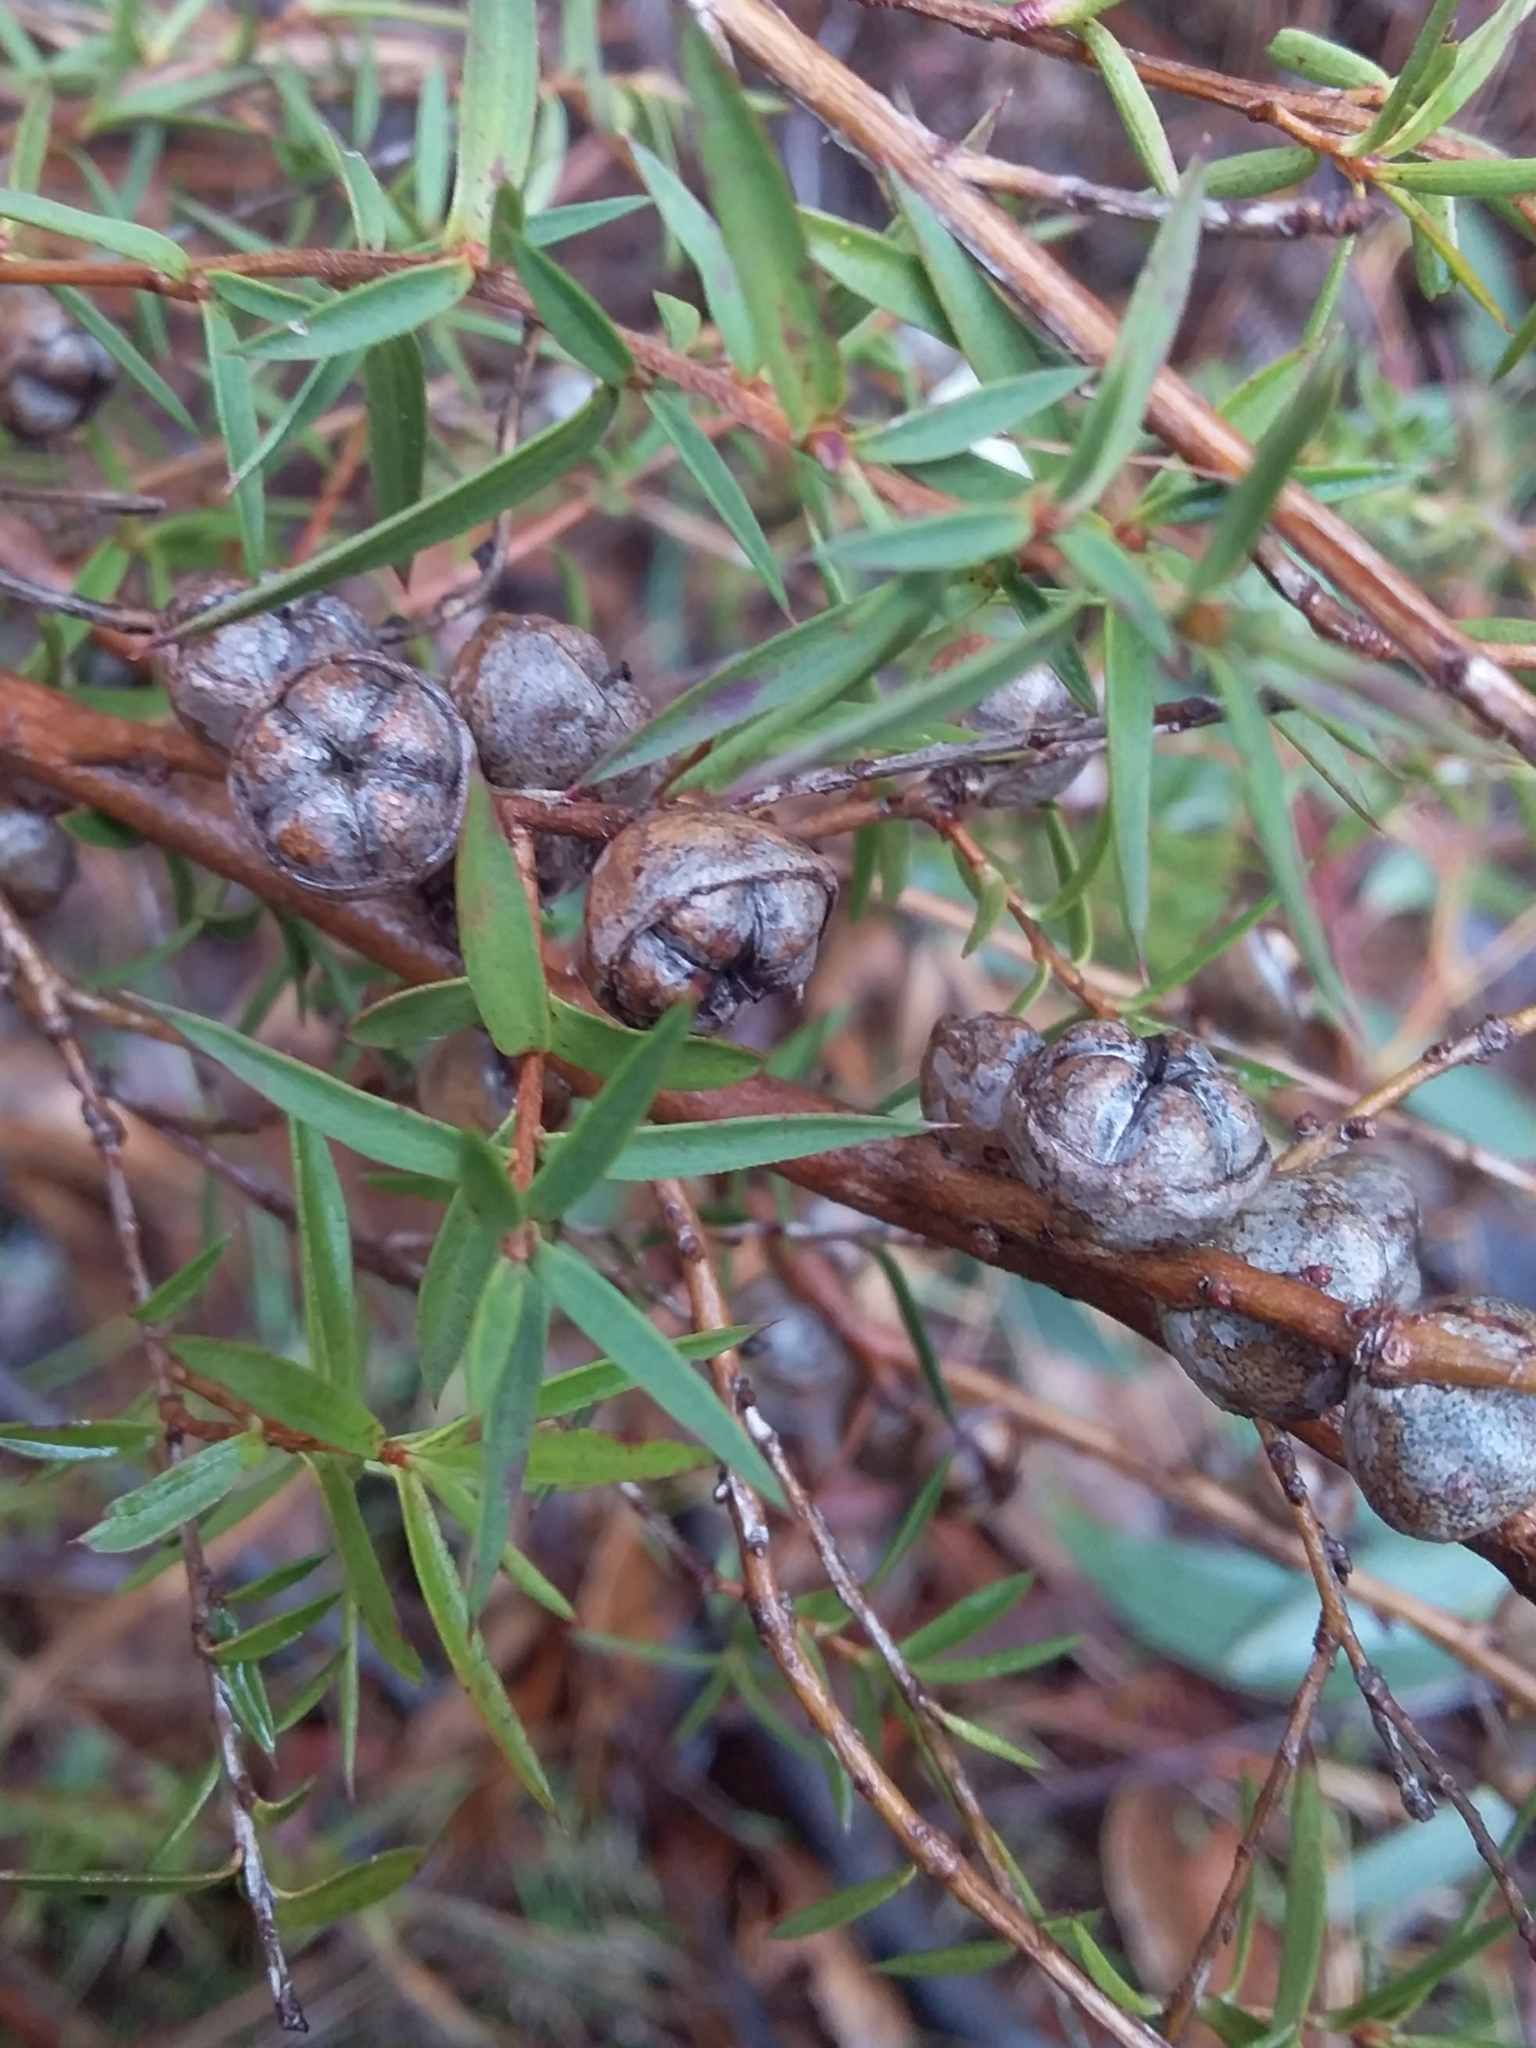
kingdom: Plantae
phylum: Tracheophyta
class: Magnoliopsida
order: Myrtales
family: Myrtaceae
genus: Leptospermum
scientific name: Leptospermum continentale
